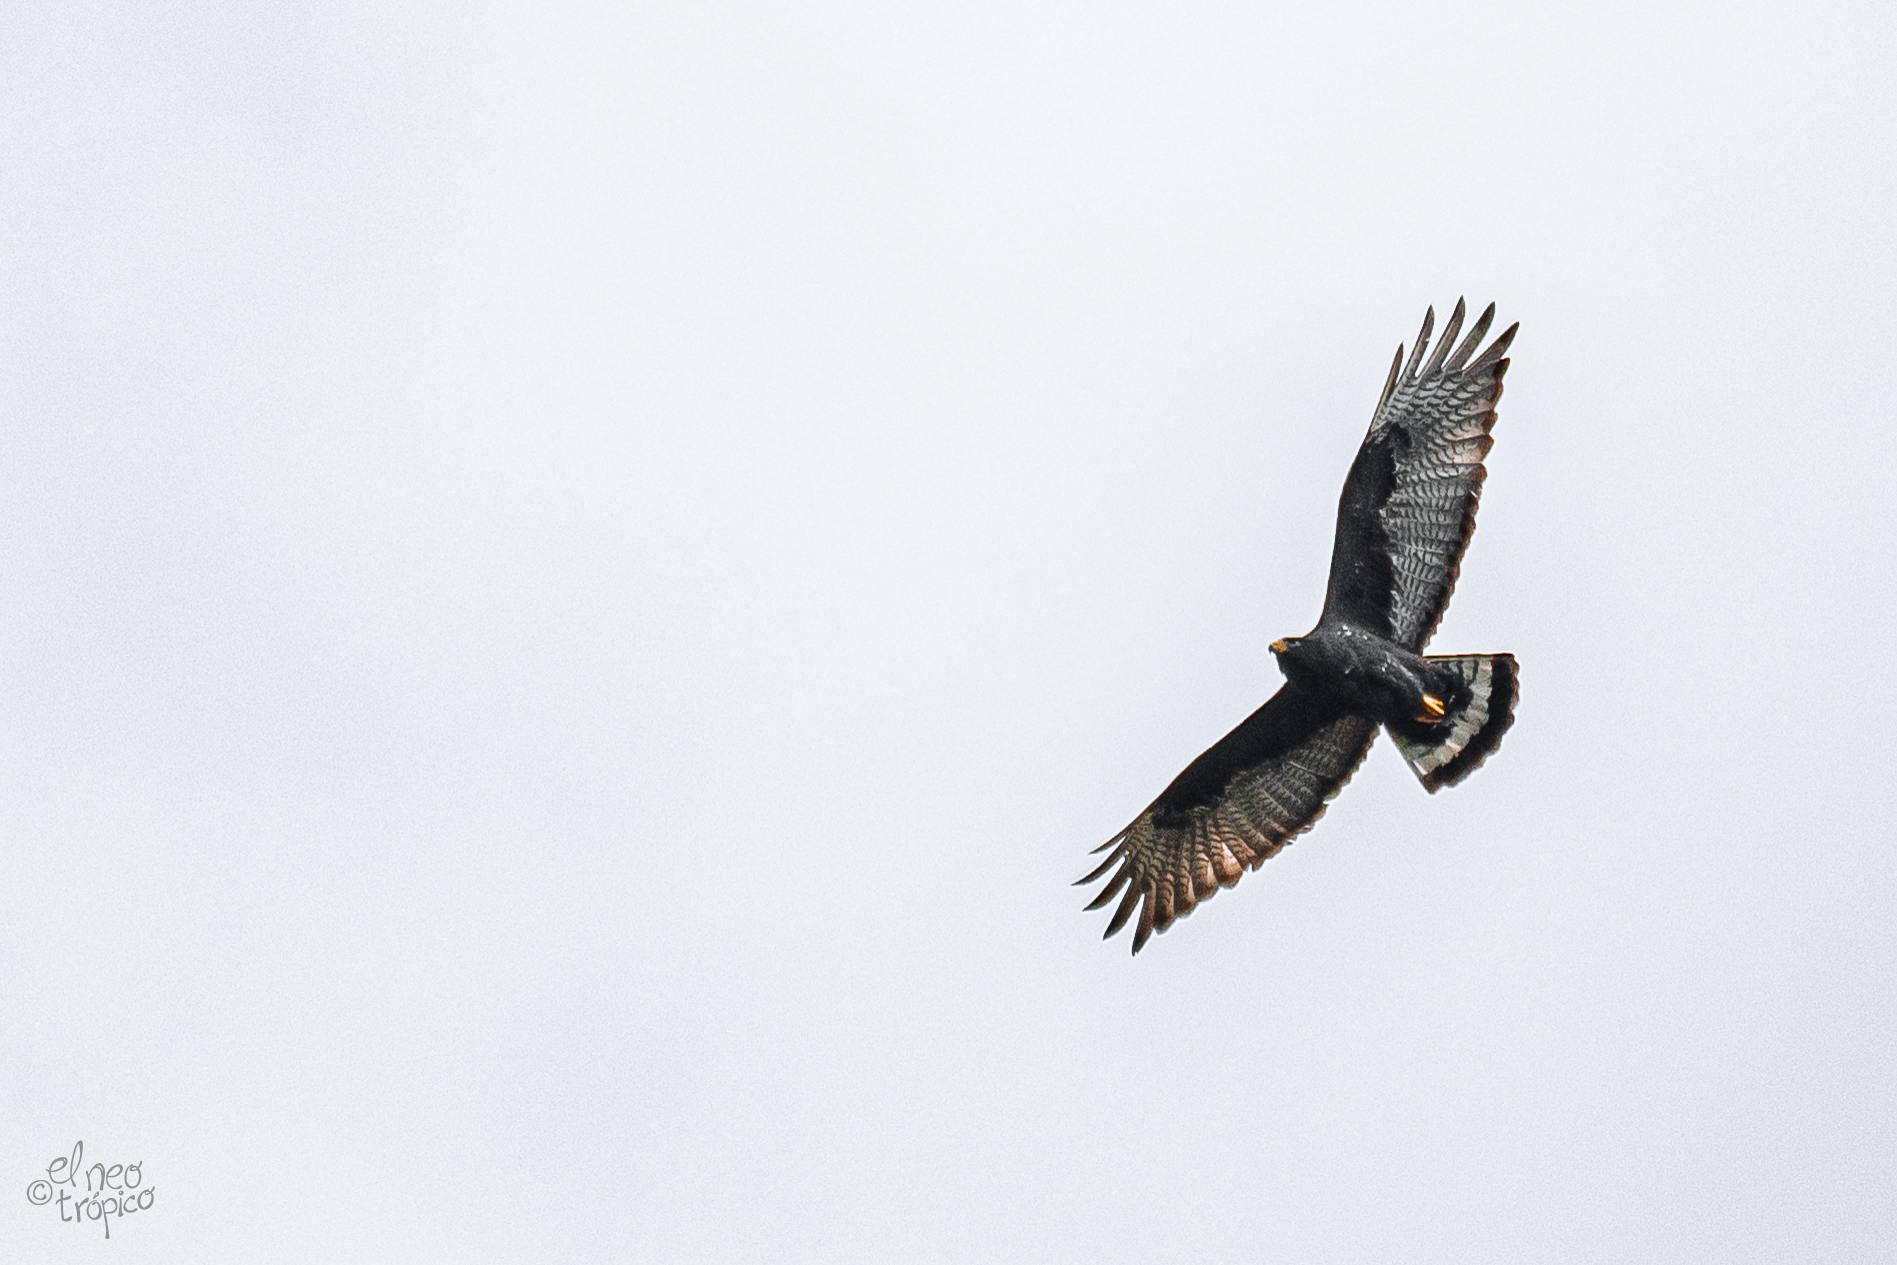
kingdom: Animalia
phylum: Chordata
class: Aves
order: Accipitriformes
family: Accipitridae
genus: Buteo
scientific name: Buteo albonotatus
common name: Zone-tailed hawk
